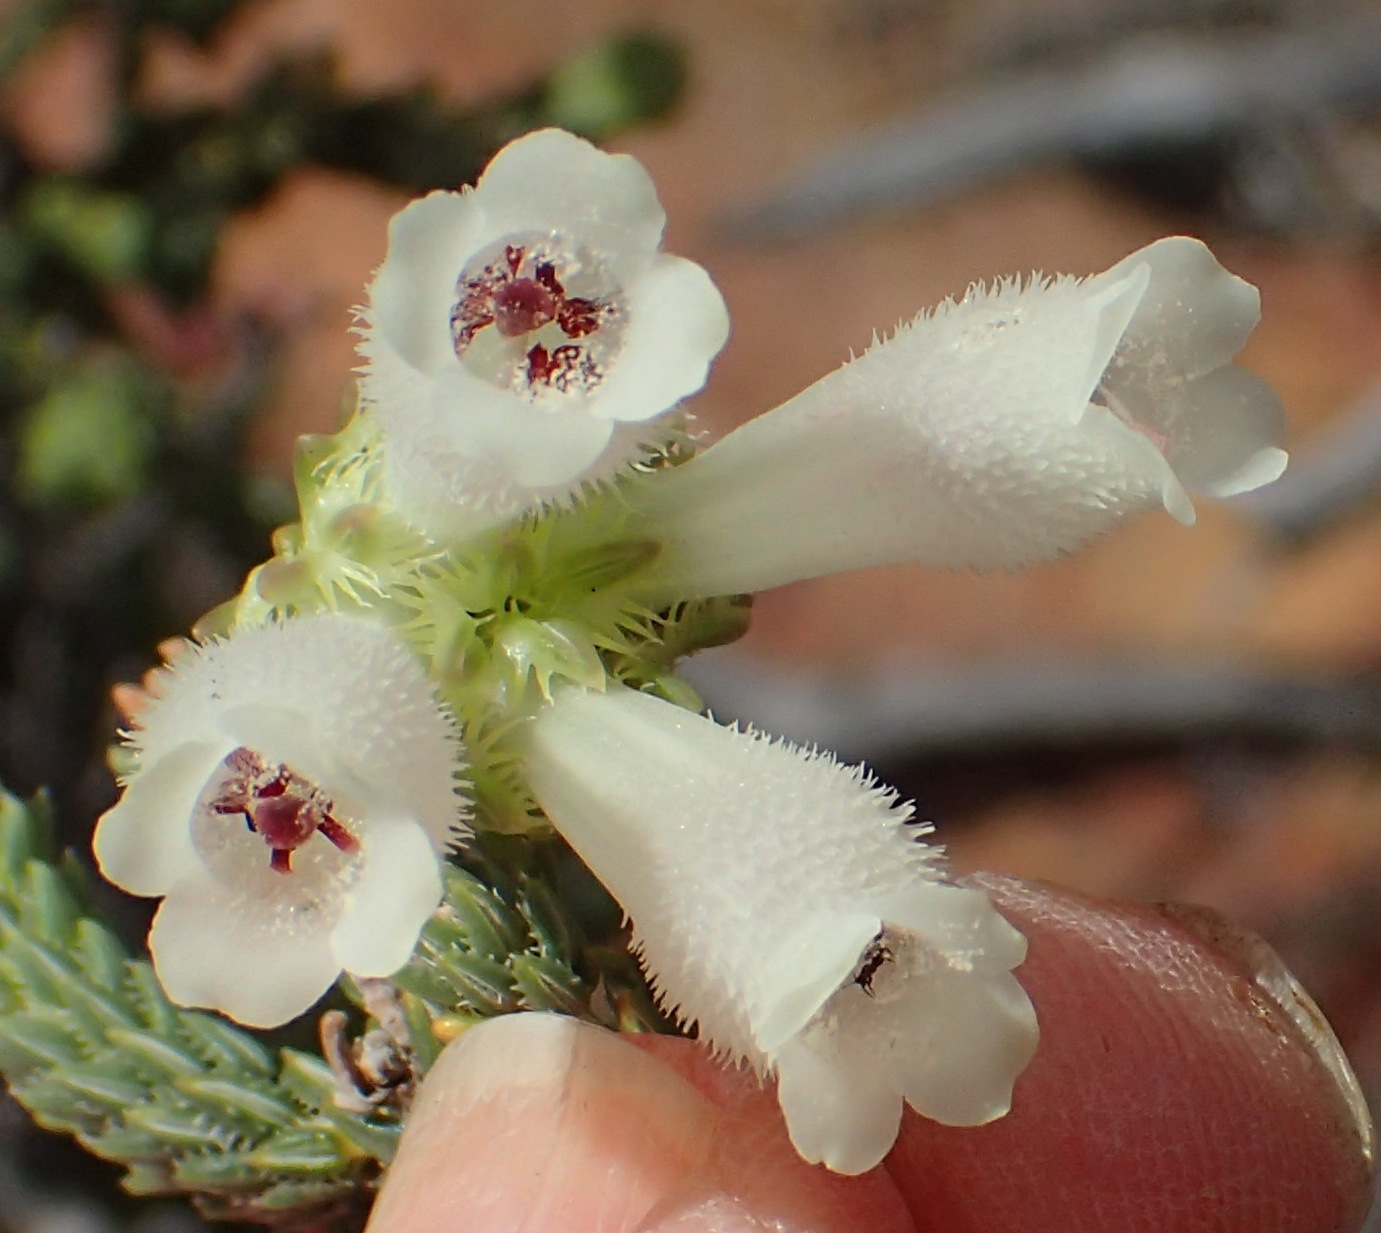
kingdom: Plantae
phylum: Tracheophyta
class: Magnoliopsida
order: Ericales
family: Ericaceae
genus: Erica
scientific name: Erica pectinifolia
